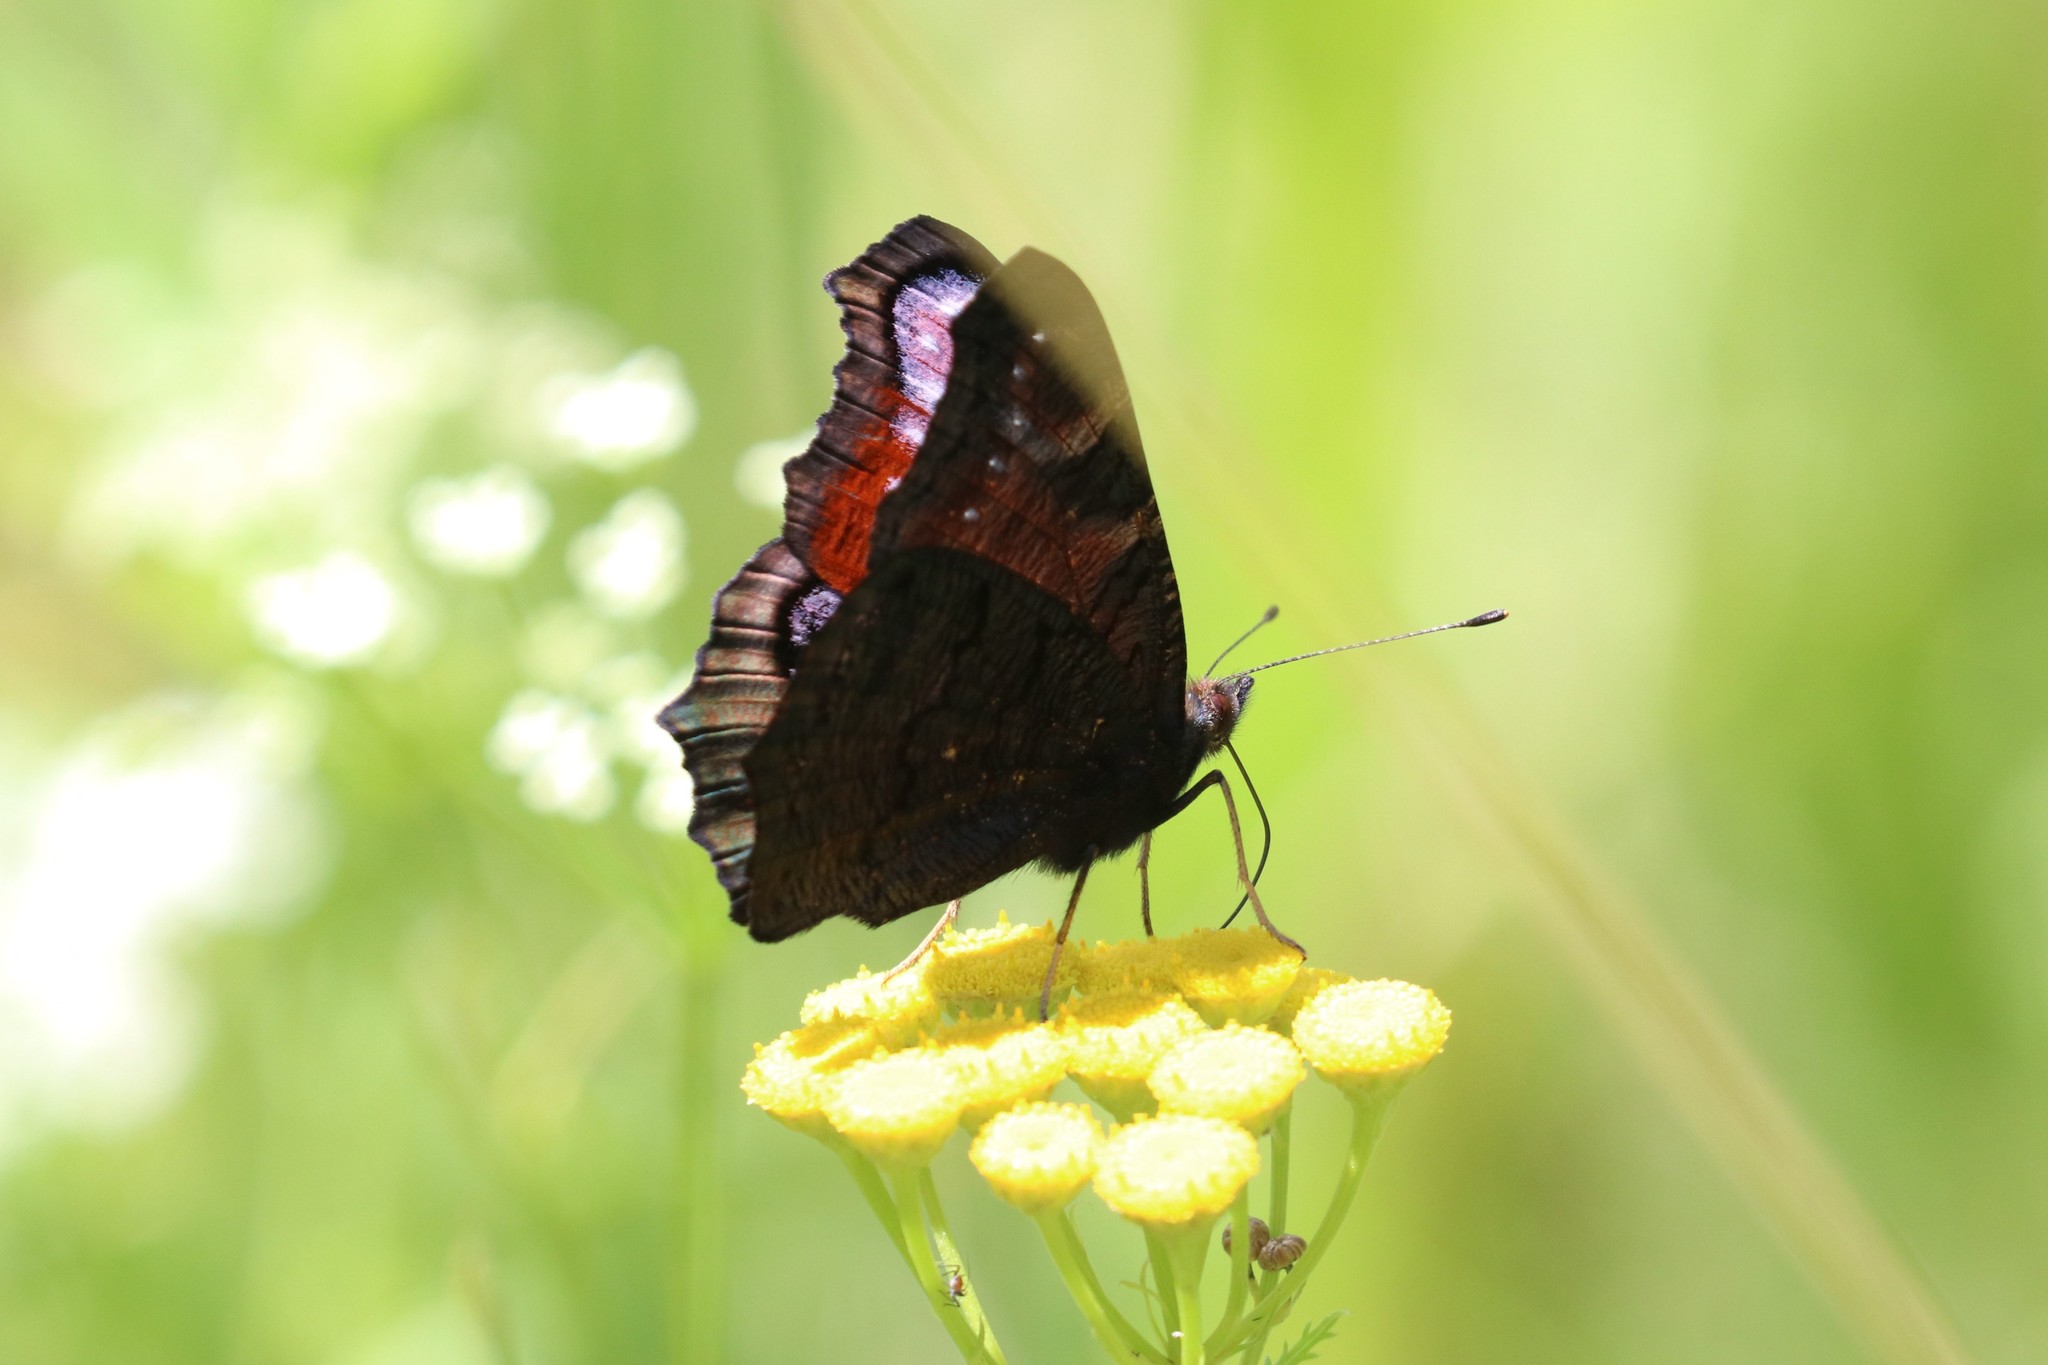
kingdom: Animalia
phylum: Arthropoda
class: Insecta
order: Lepidoptera
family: Nymphalidae
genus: Aglais
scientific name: Aglais io
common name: Peacock
